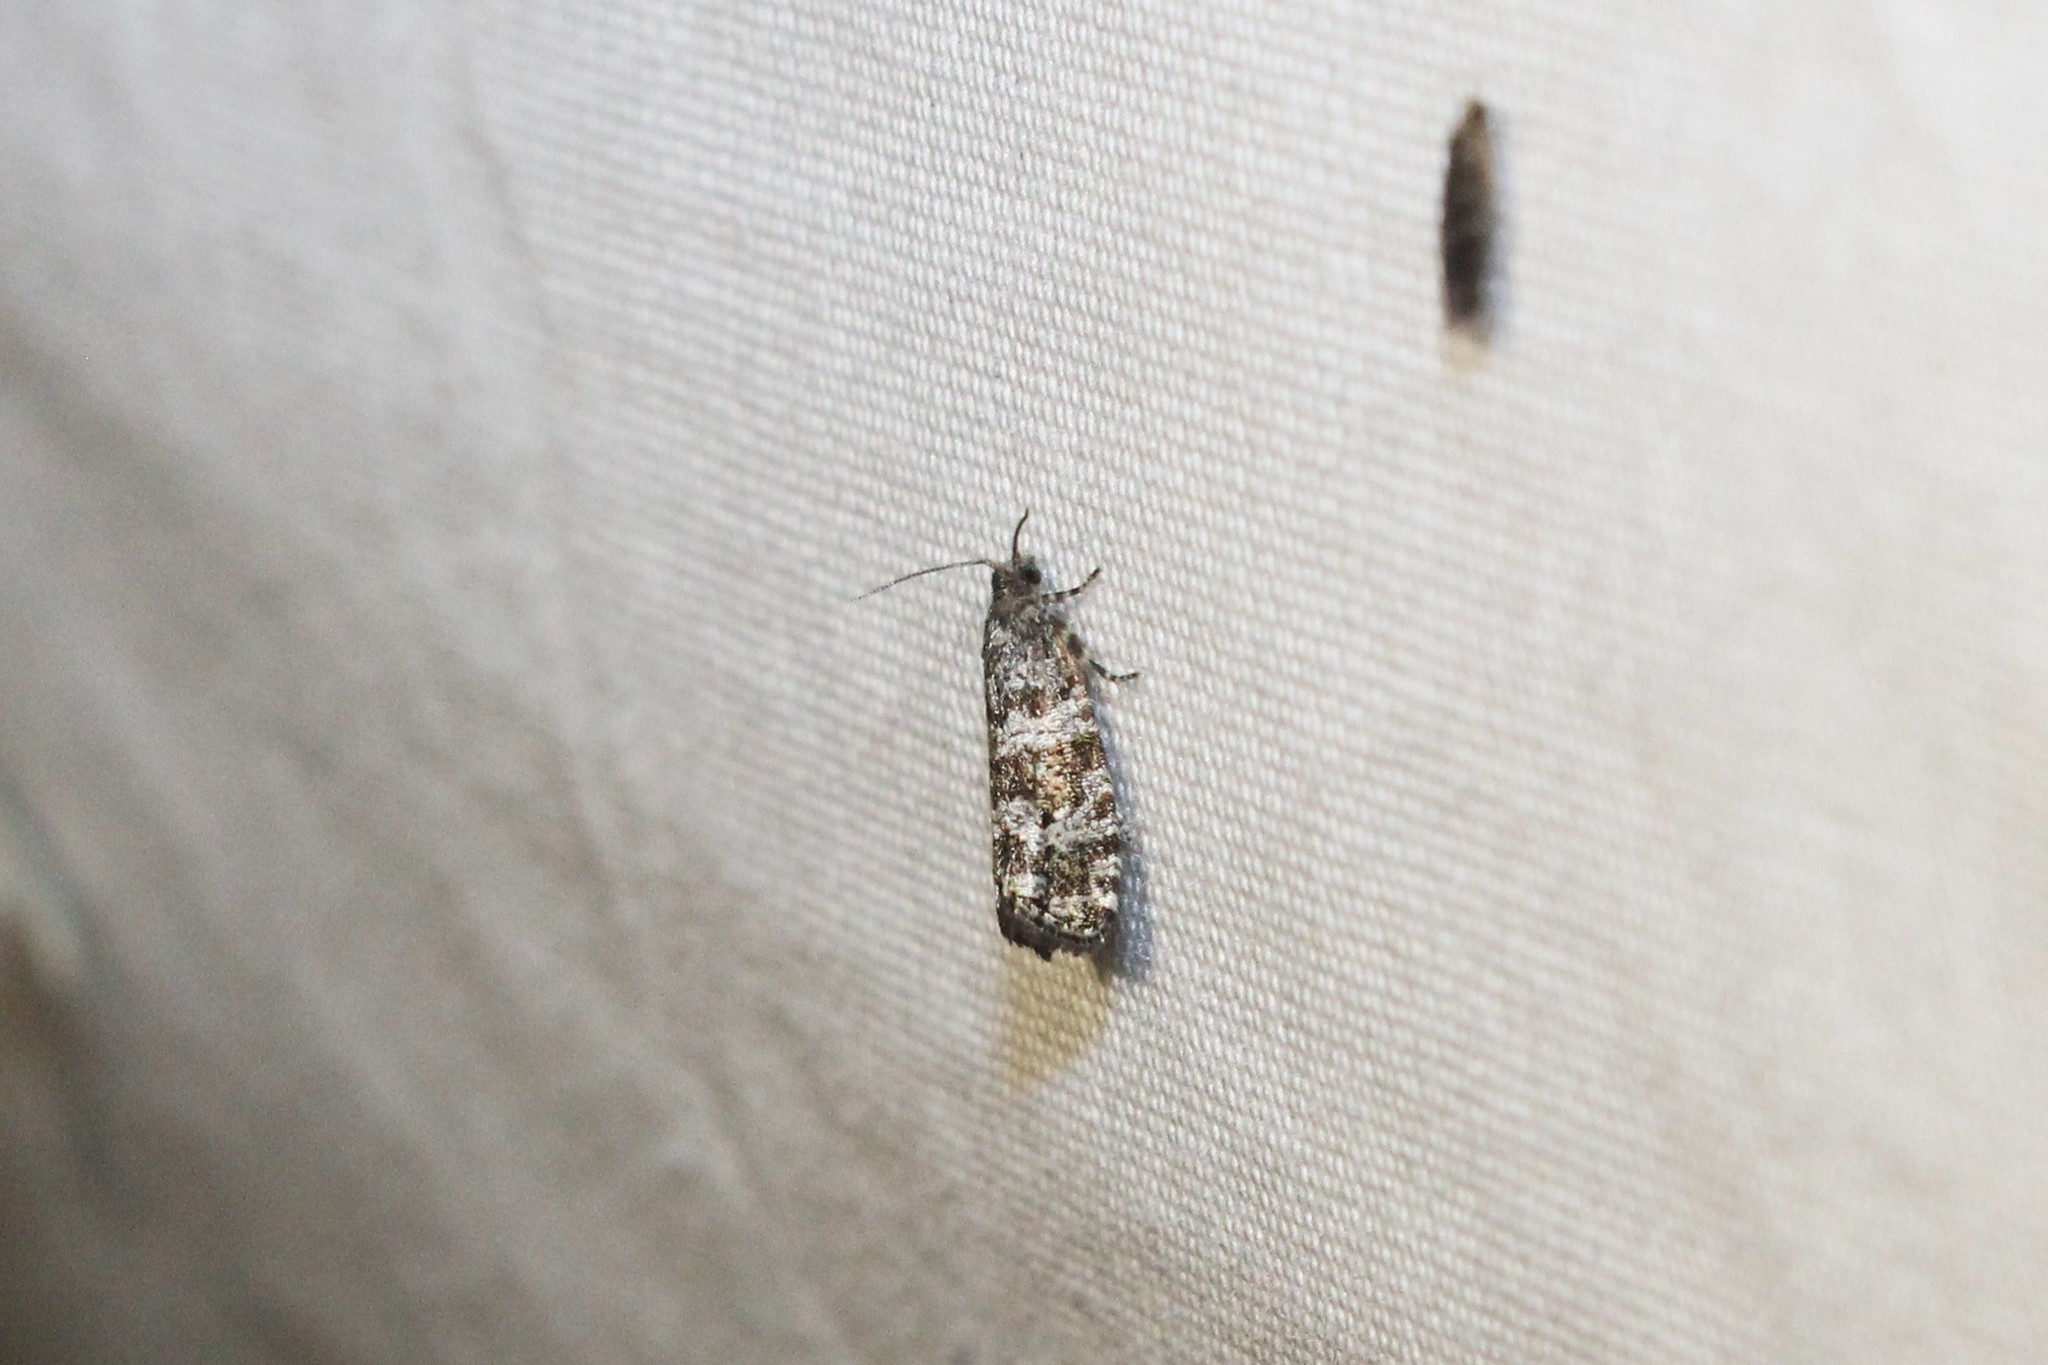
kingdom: Animalia
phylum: Arthropoda
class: Insecta
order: Lepidoptera
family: Tortricidae
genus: Taniva
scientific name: Taniva albolineana
